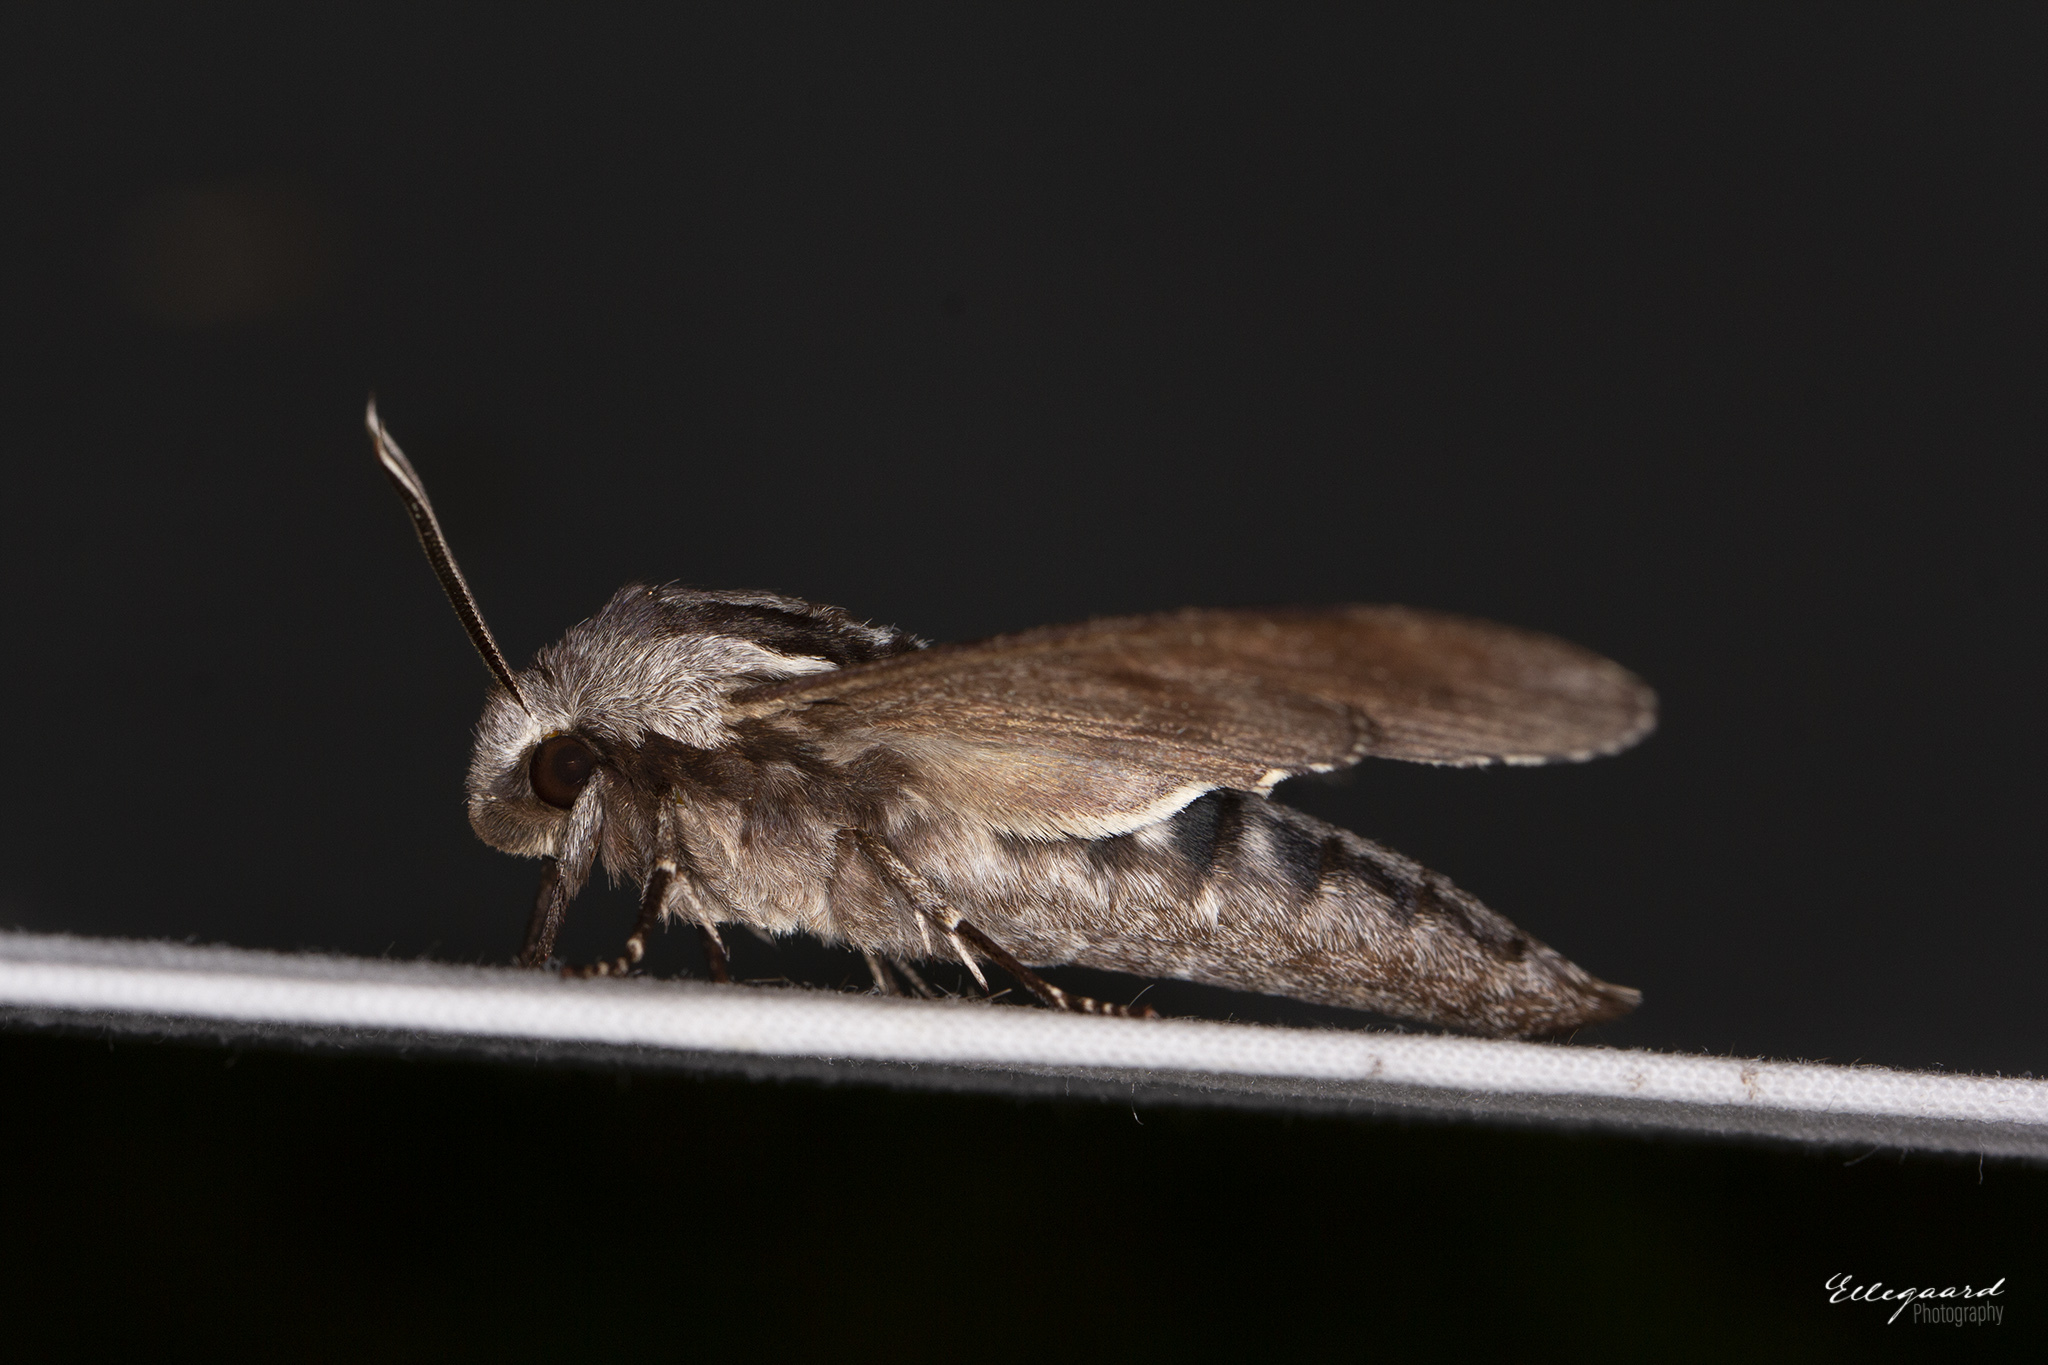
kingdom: Animalia
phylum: Arthropoda
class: Insecta
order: Lepidoptera
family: Sphingidae
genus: Sphinx
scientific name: Sphinx pinastri
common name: Pine hawk-moth
